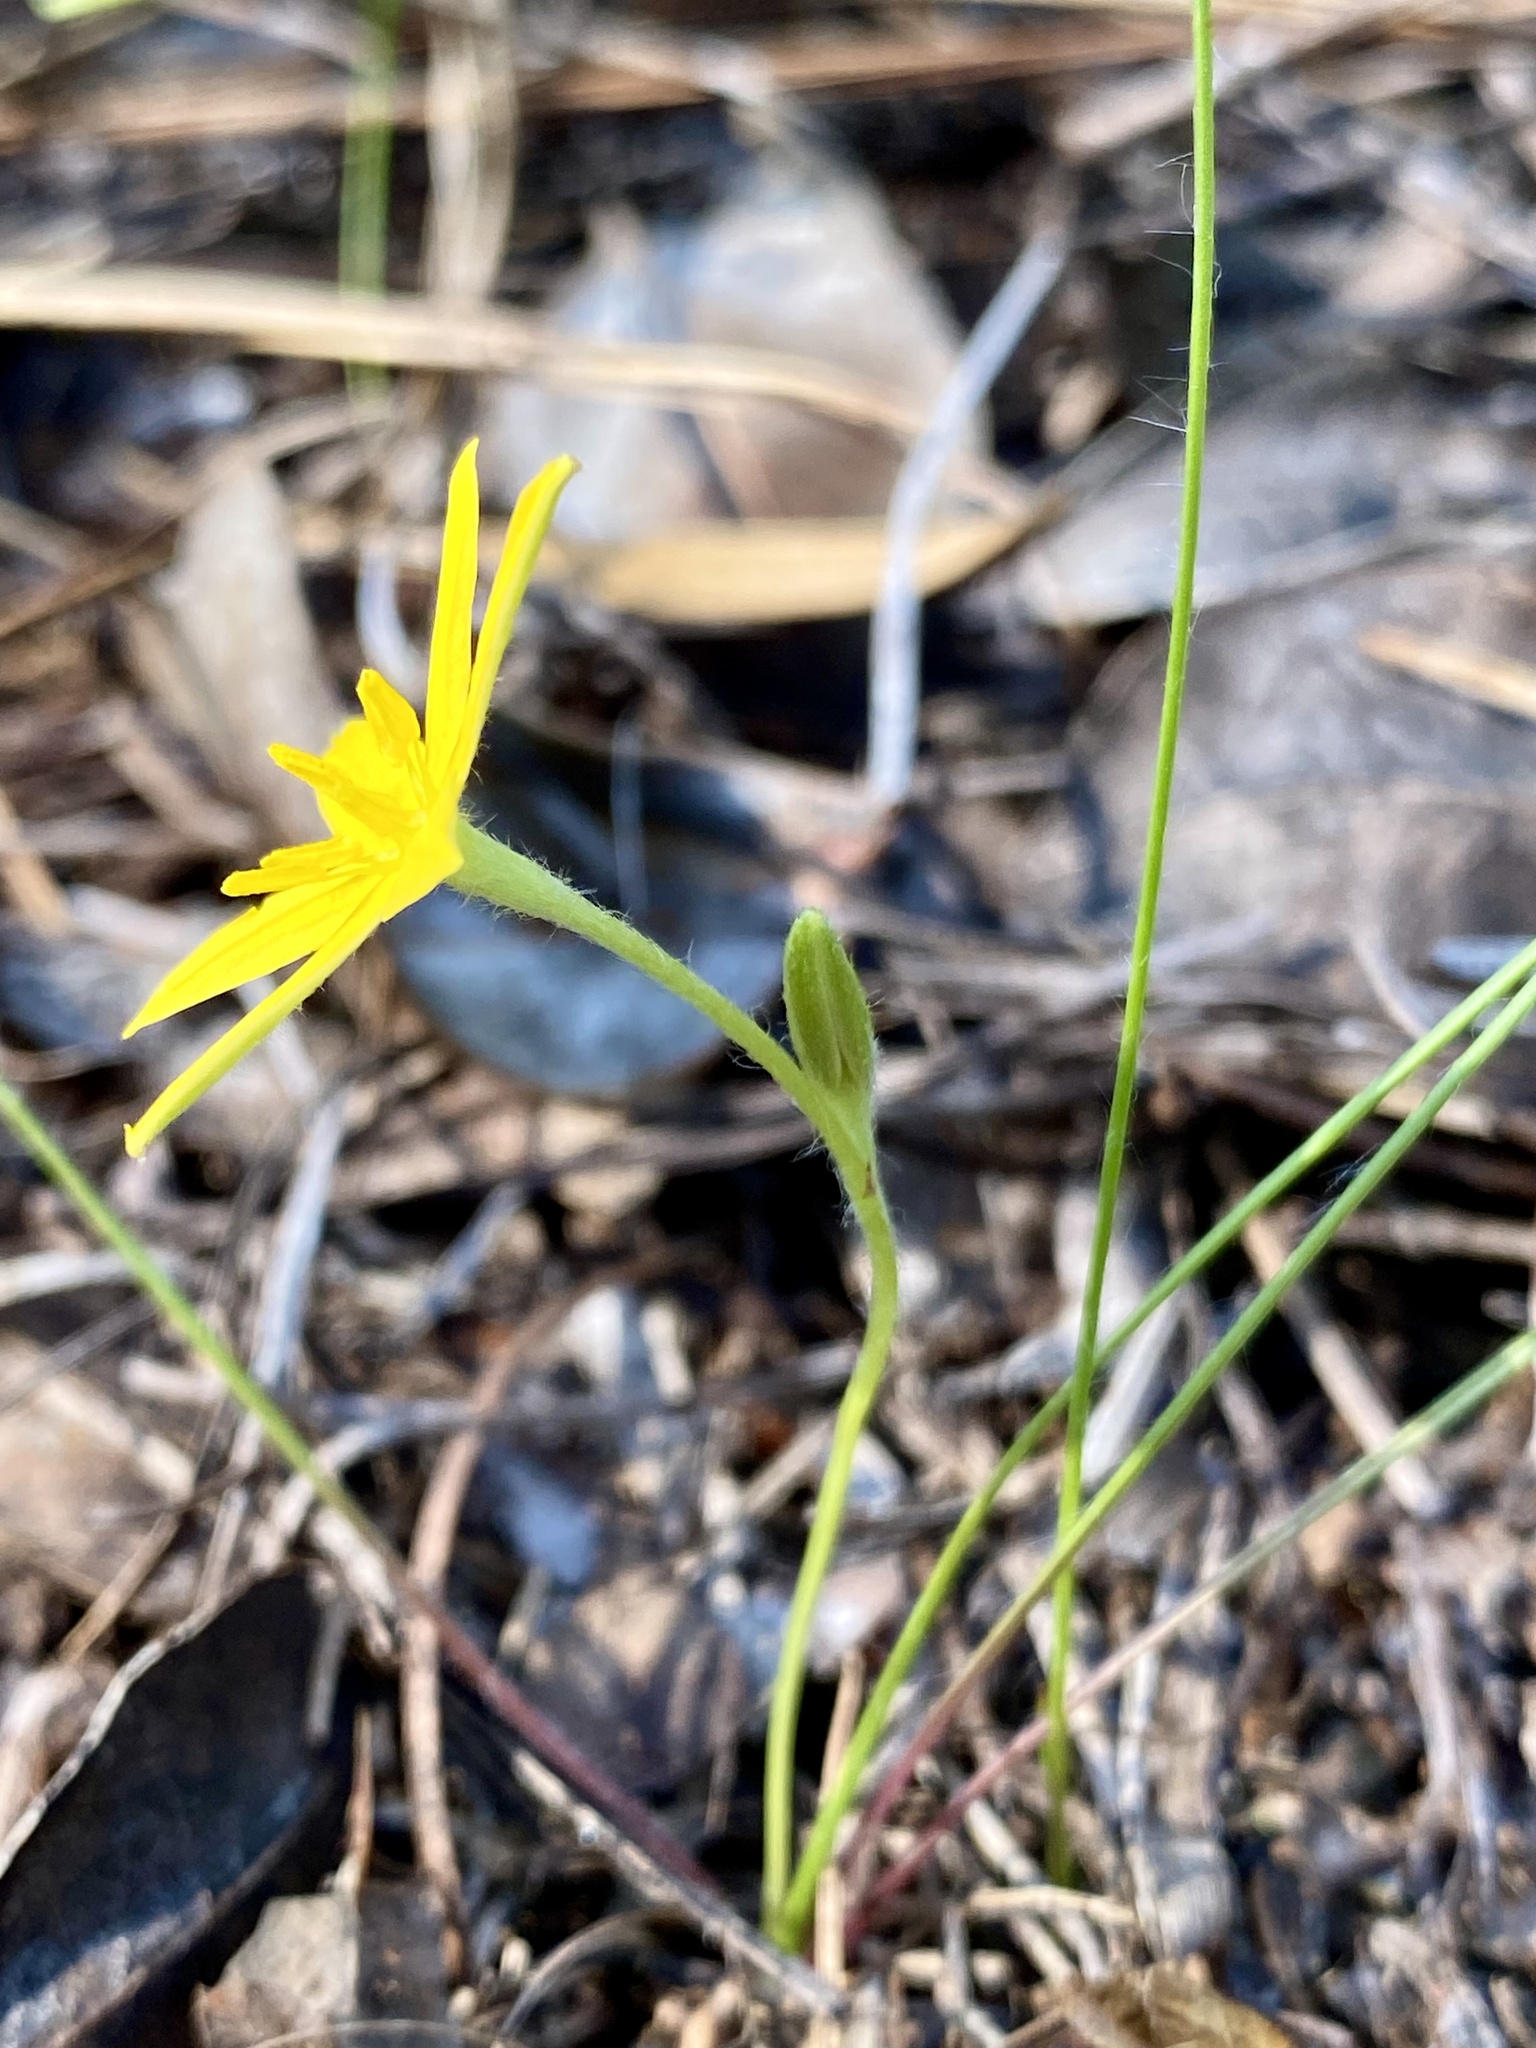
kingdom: Plantae
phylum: Tracheophyta
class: Liliopsida
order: Asparagales
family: Hypoxidaceae
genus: Hypoxis
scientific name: Hypoxis juncea
